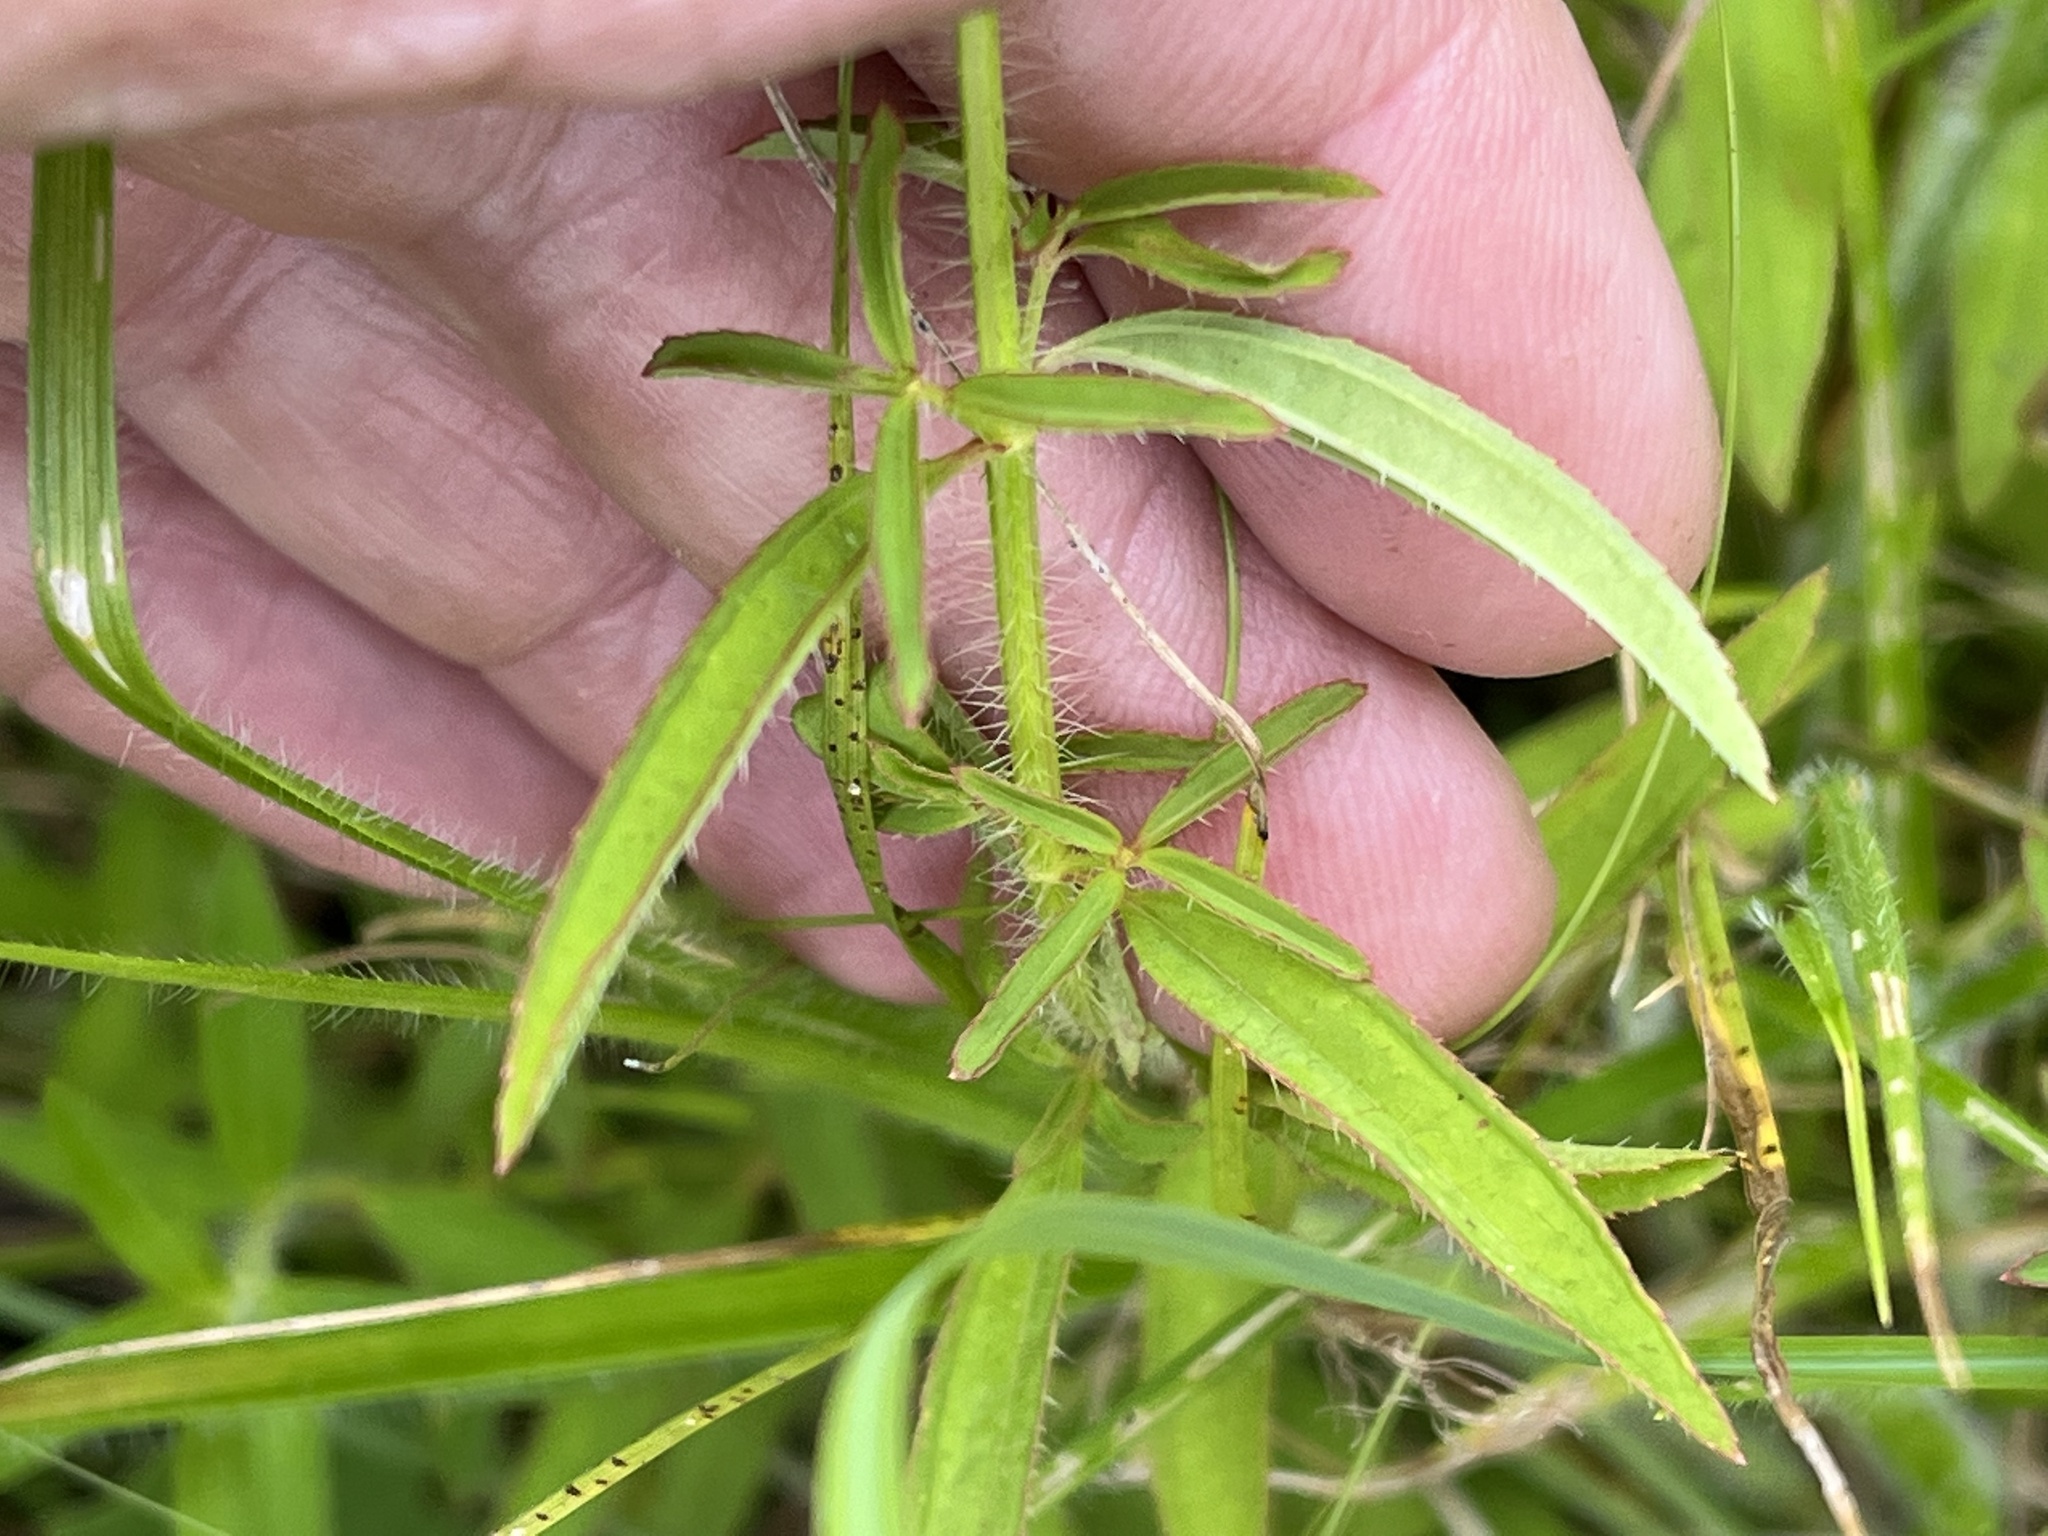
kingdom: Plantae
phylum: Tracheophyta
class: Magnoliopsida
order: Myrtales
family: Melastomataceae
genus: Rhexia
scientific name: Rhexia mariana
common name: Dull meadow-pitcher
